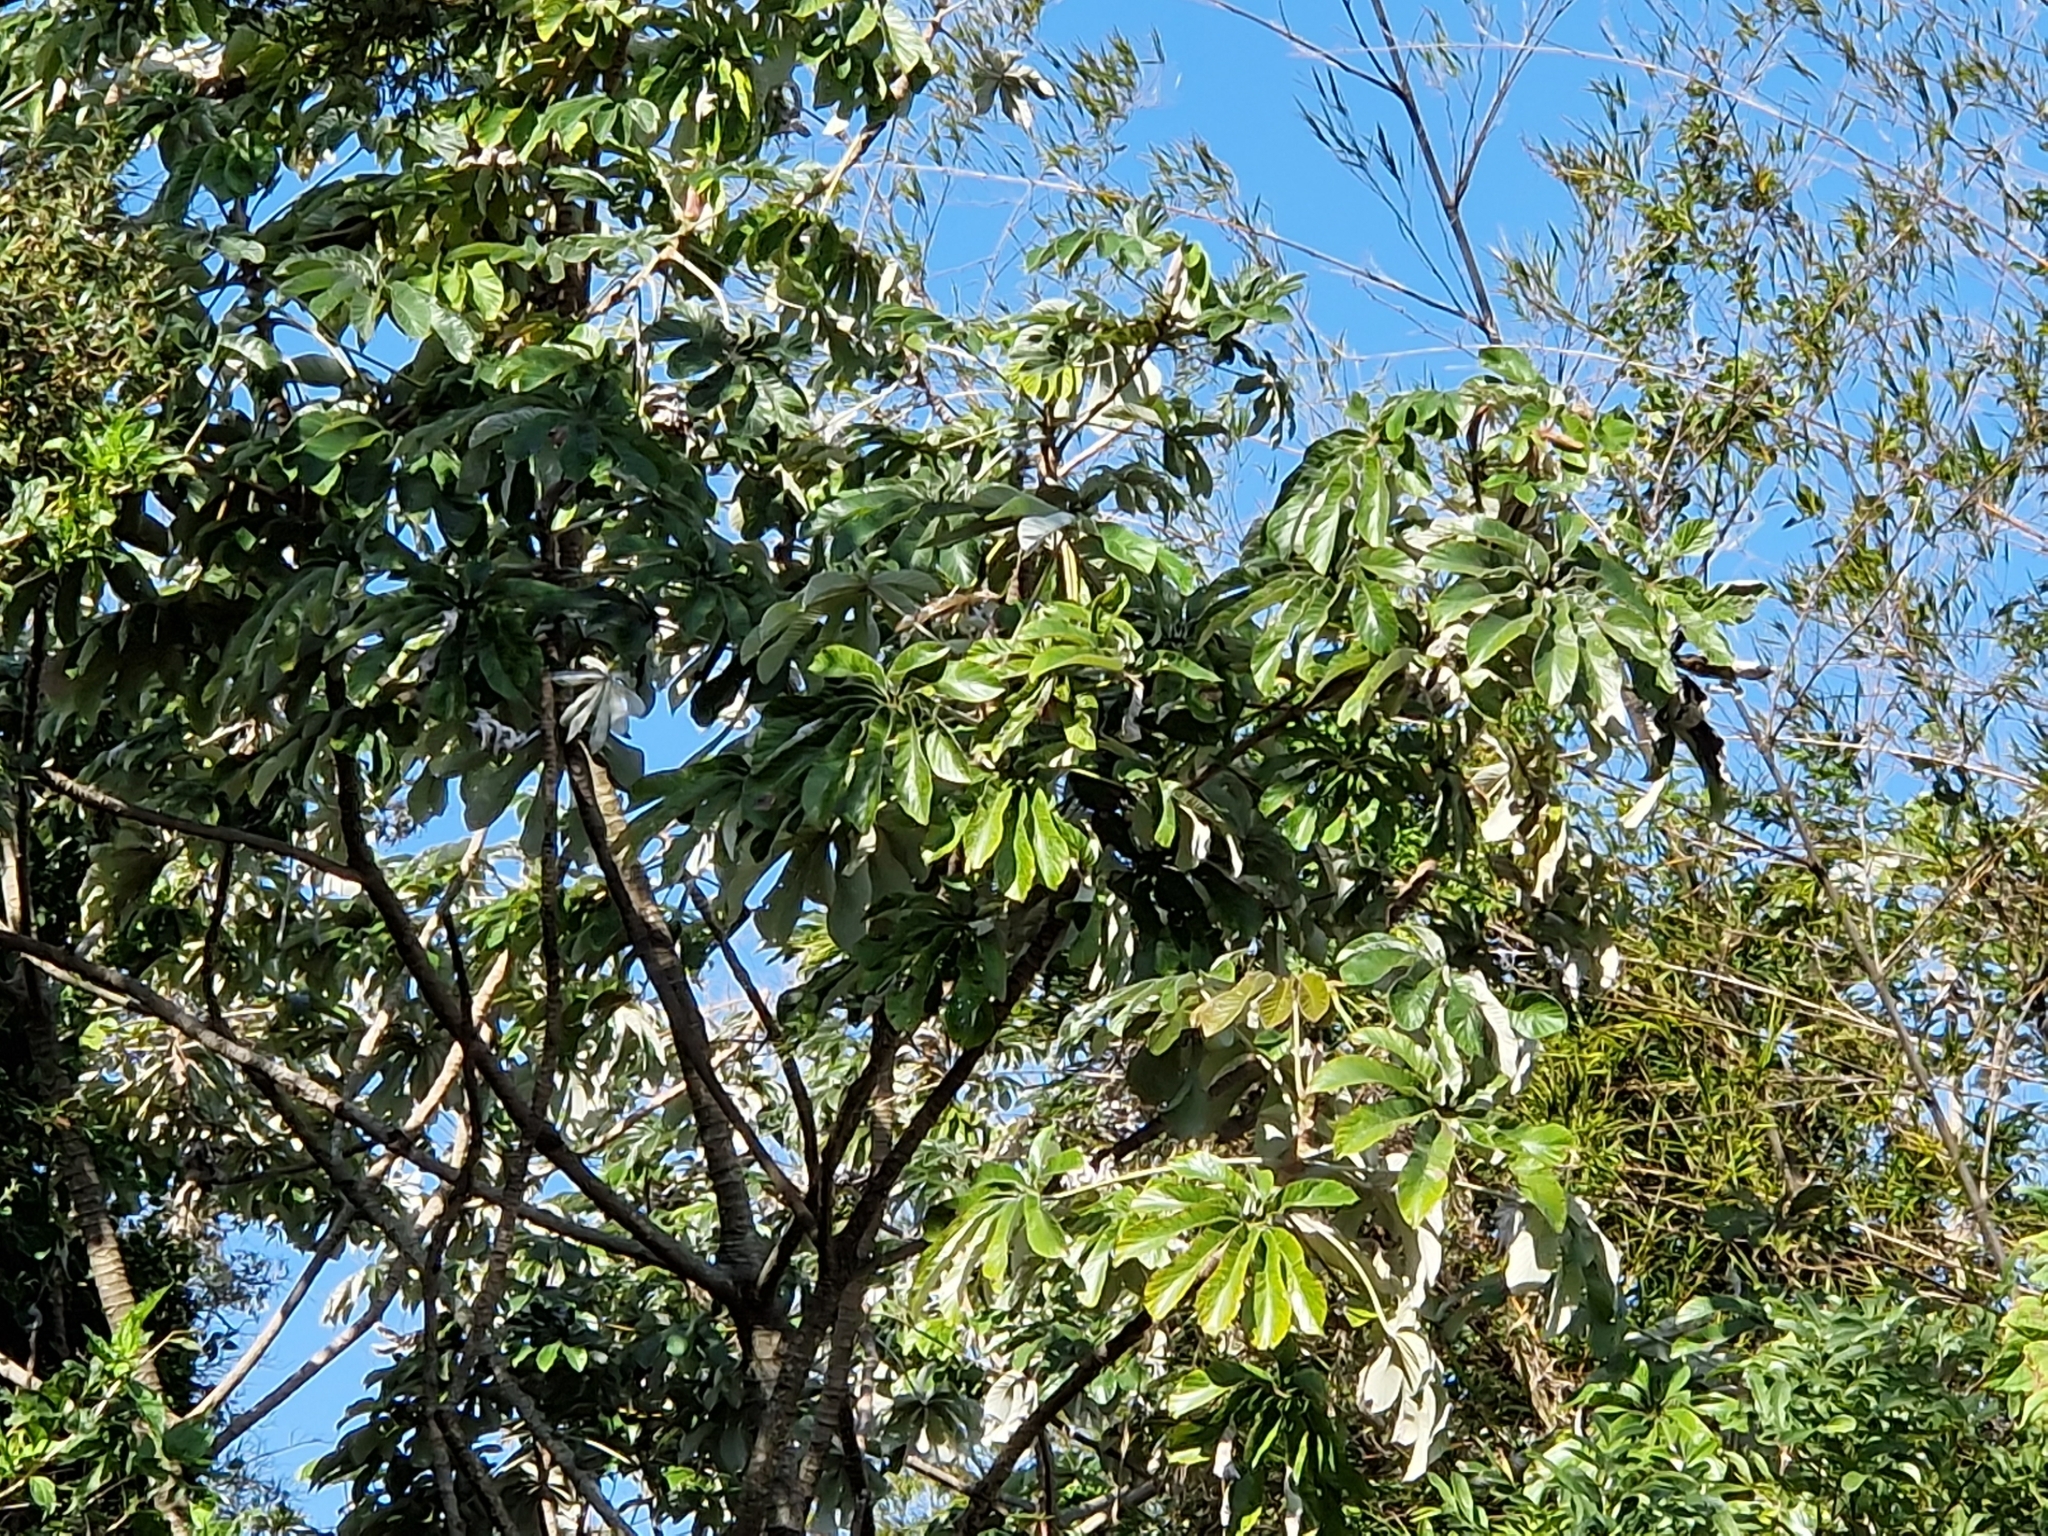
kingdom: Plantae
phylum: Tracheophyta
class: Magnoliopsida
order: Rosales
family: Urticaceae
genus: Cecropia
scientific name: Cecropia pachystachya
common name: Ambay pumpwood
